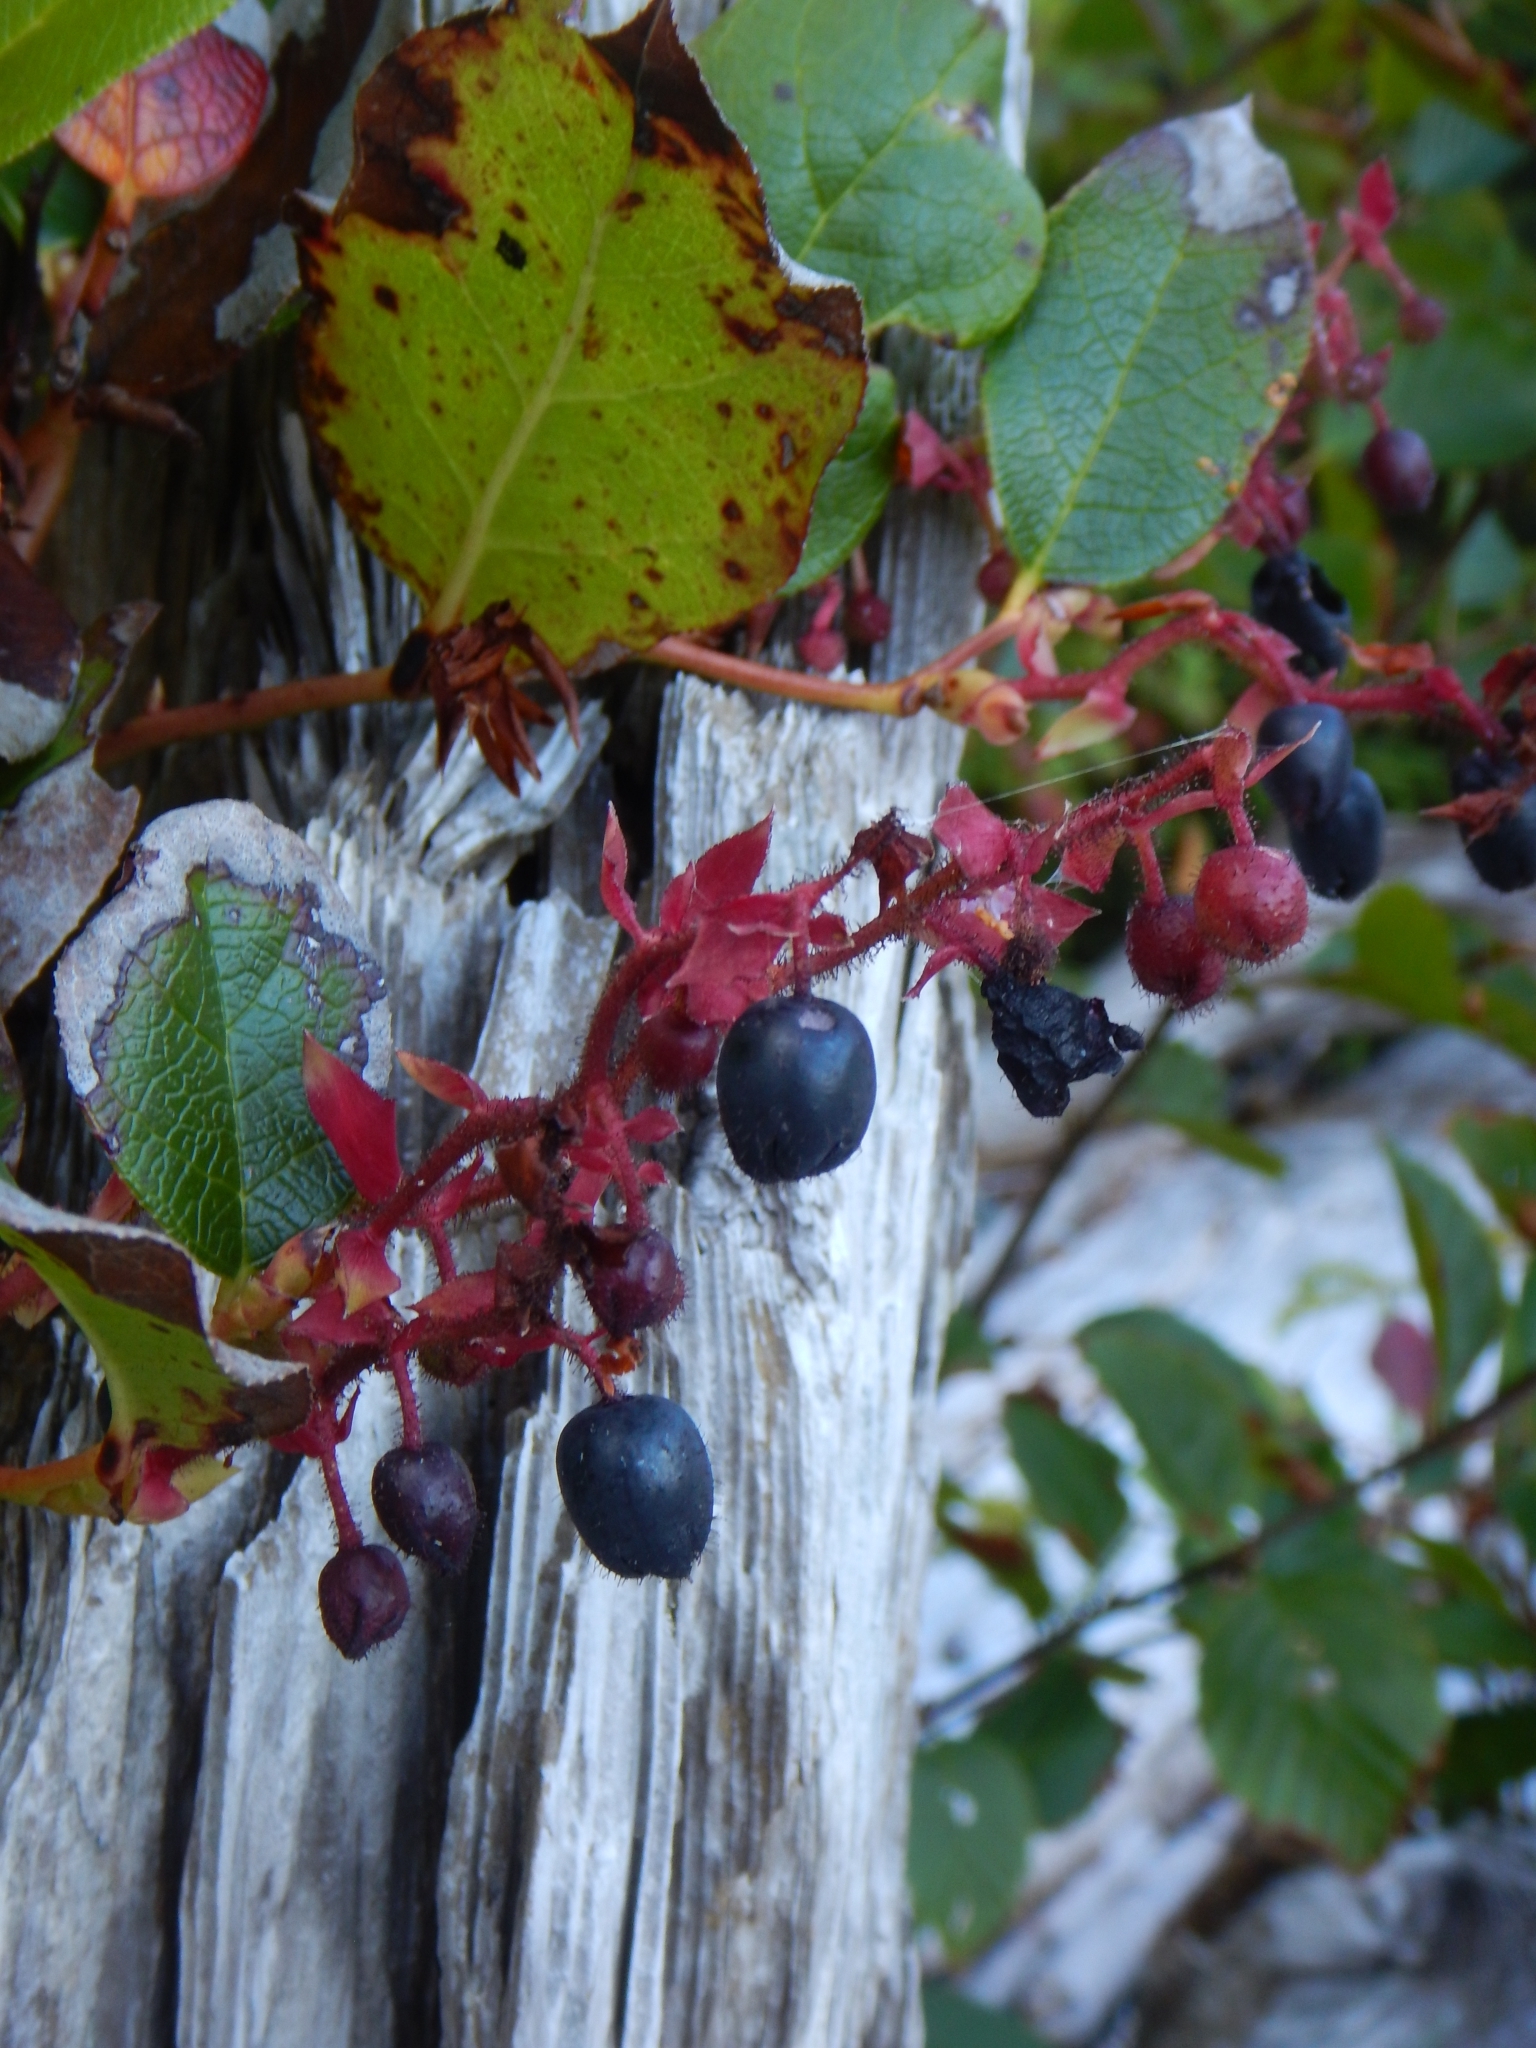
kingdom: Plantae
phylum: Tracheophyta
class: Magnoliopsida
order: Ericales
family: Ericaceae
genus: Gaultheria
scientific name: Gaultheria shallon
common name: Shallon
